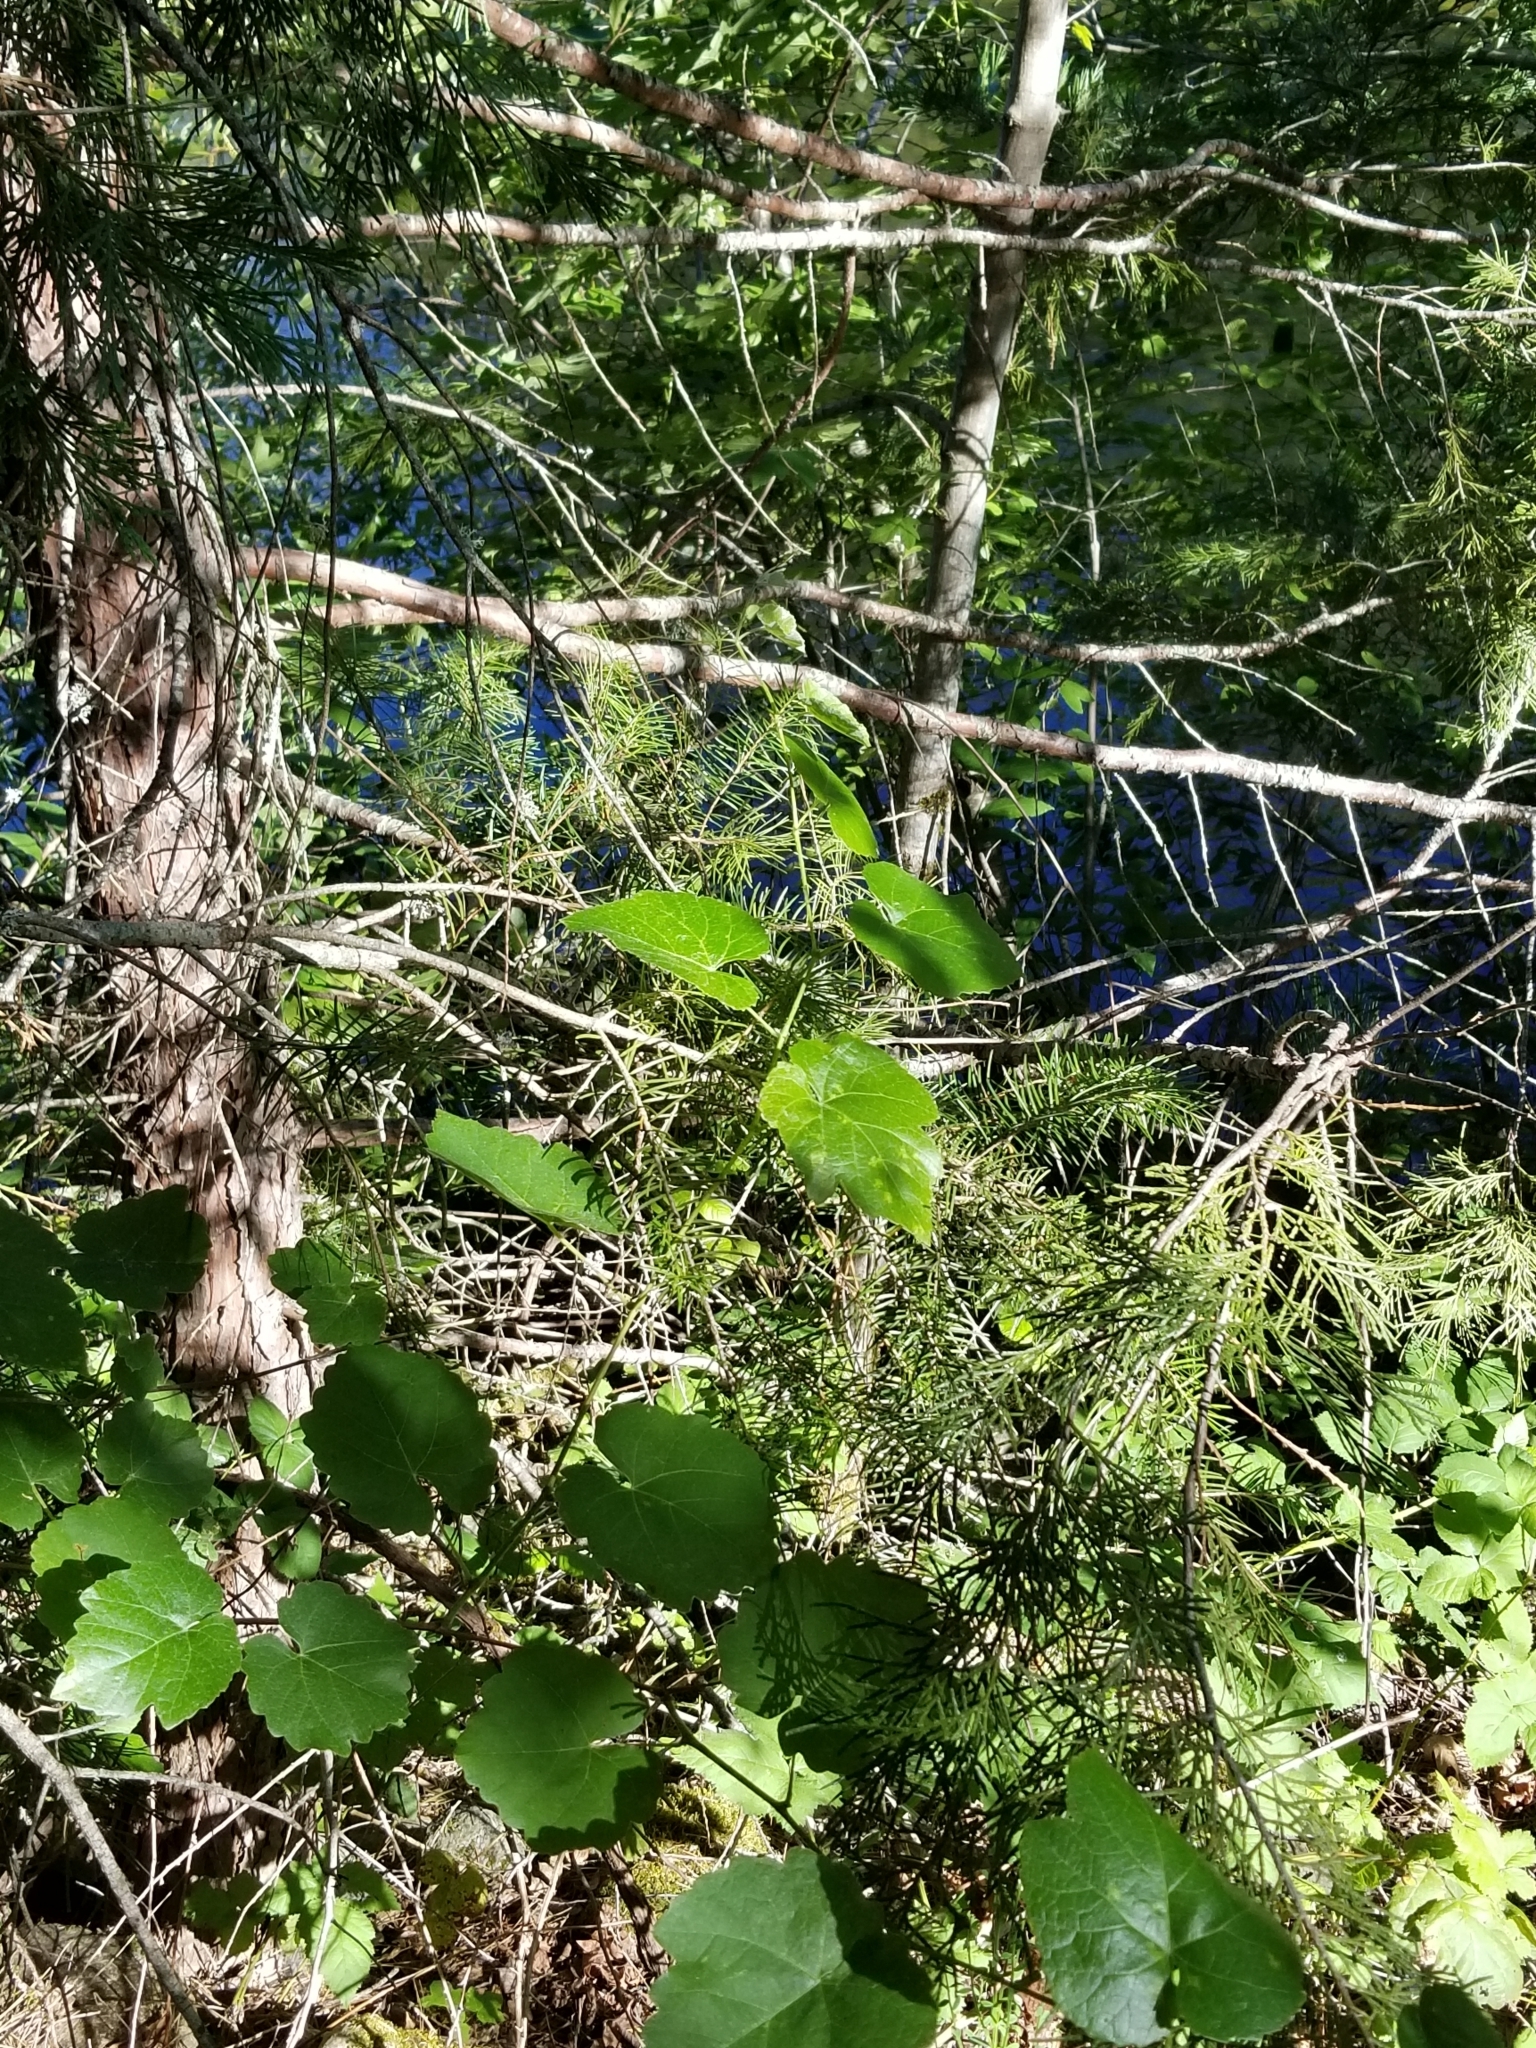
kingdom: Plantae
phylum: Tracheophyta
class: Magnoliopsida
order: Vitales
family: Vitaceae
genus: Vitis
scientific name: Vitis californica
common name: California wild grape
